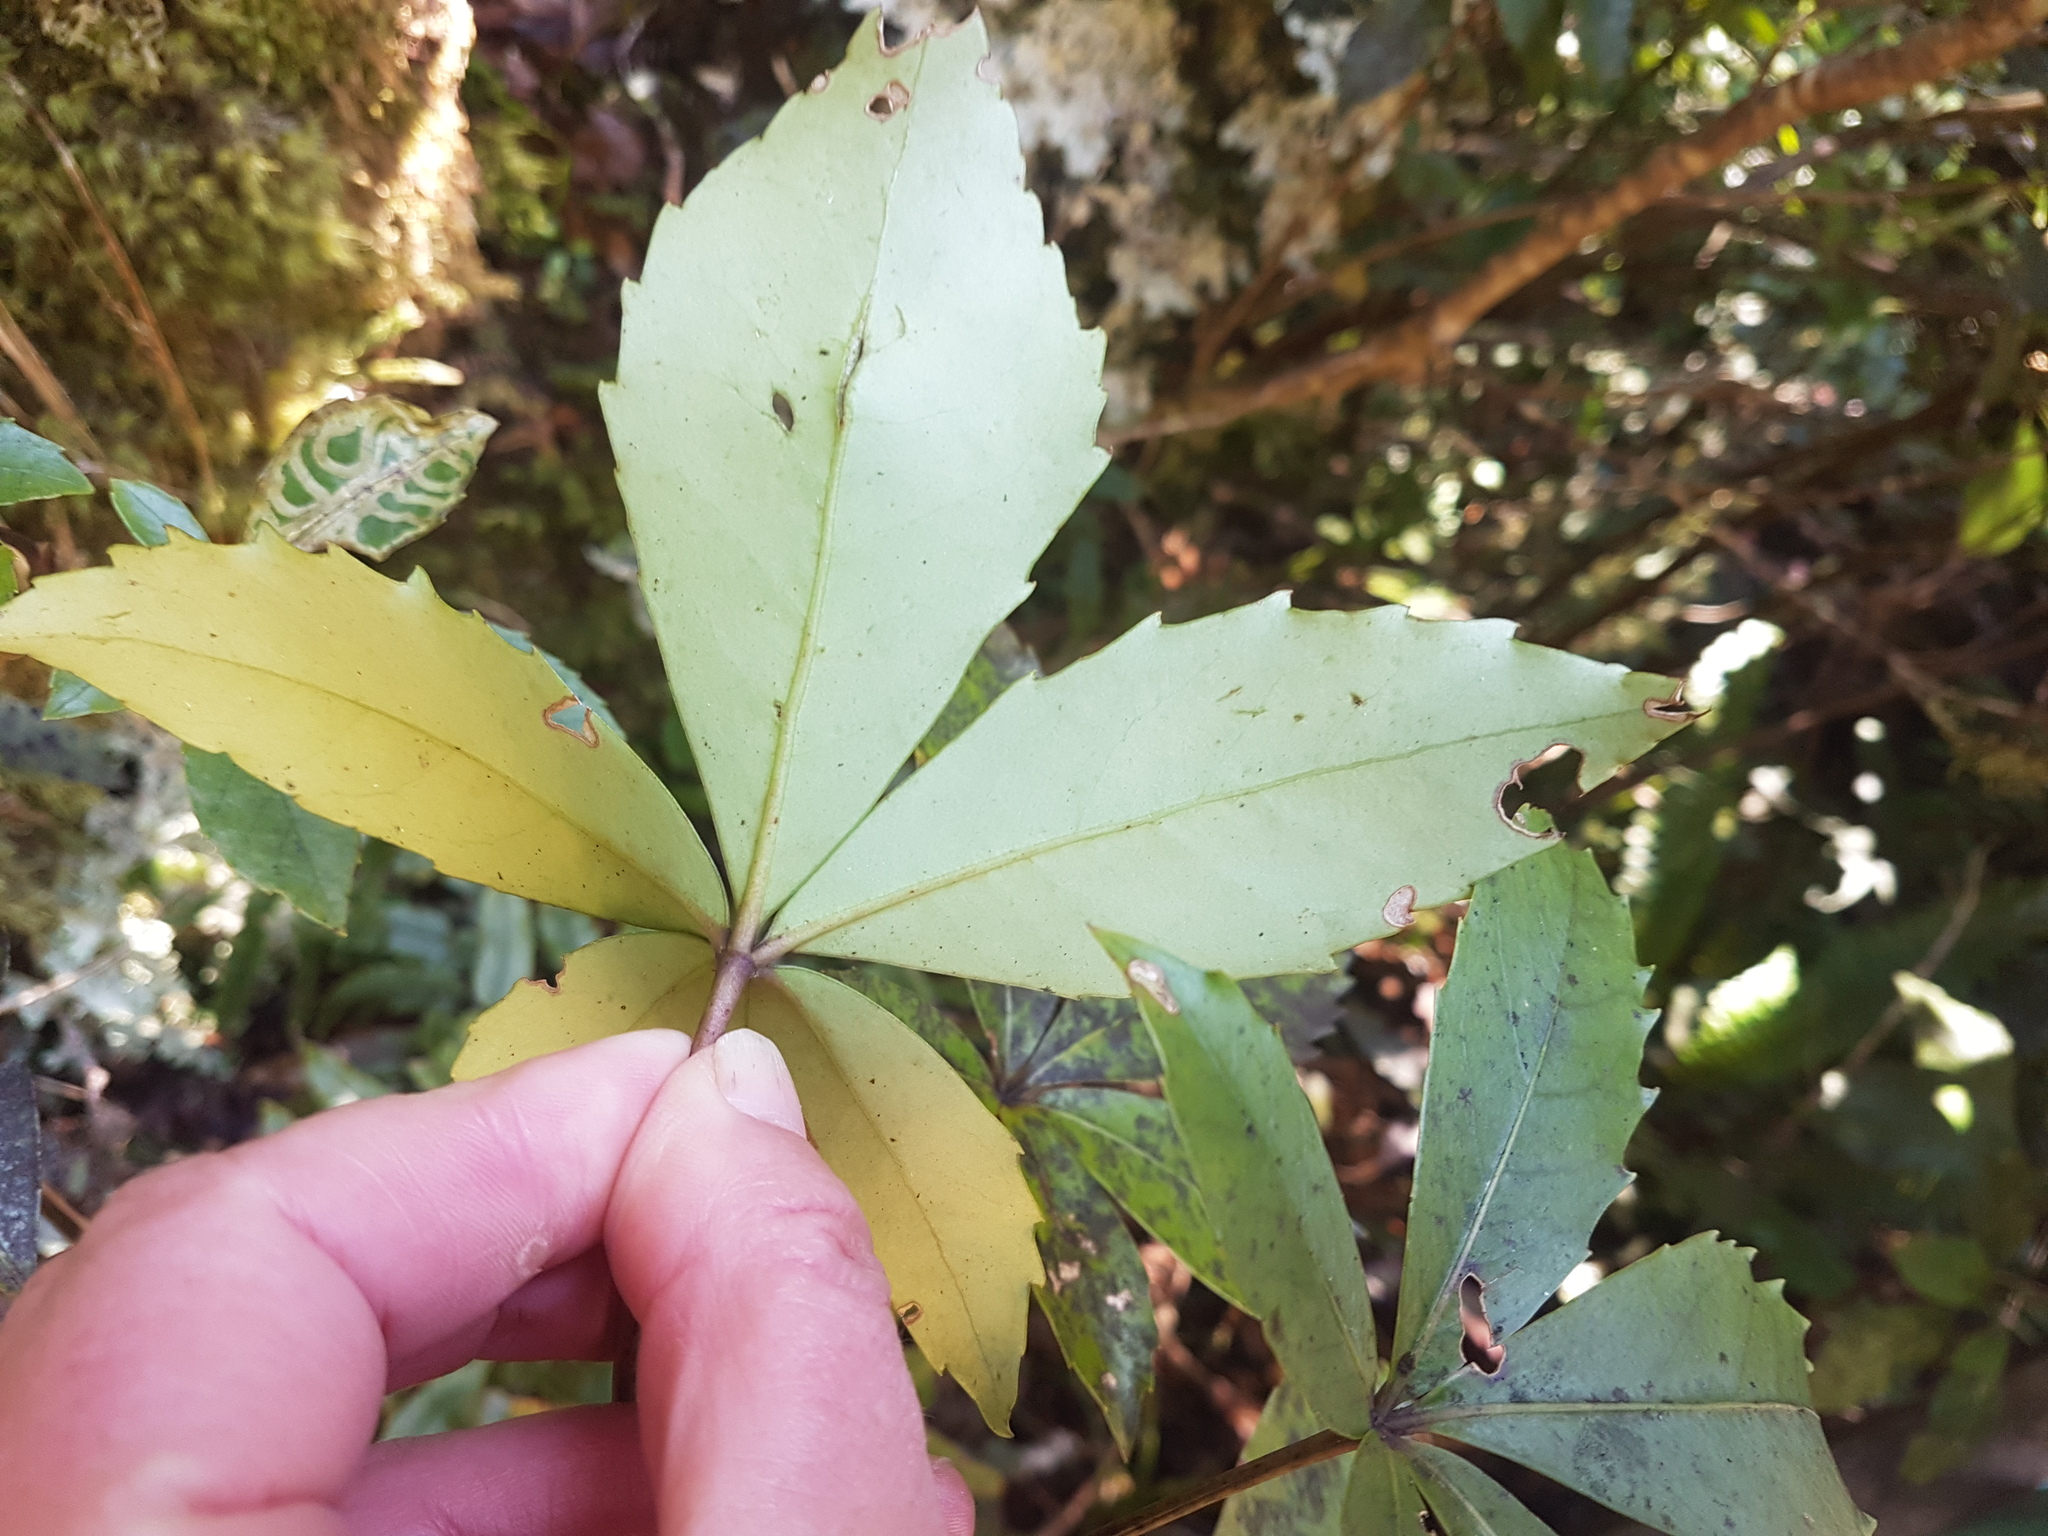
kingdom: Plantae
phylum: Tracheophyta
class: Magnoliopsida
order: Apiales
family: Araliaceae
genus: Neopanax
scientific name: Neopanax colensoi
